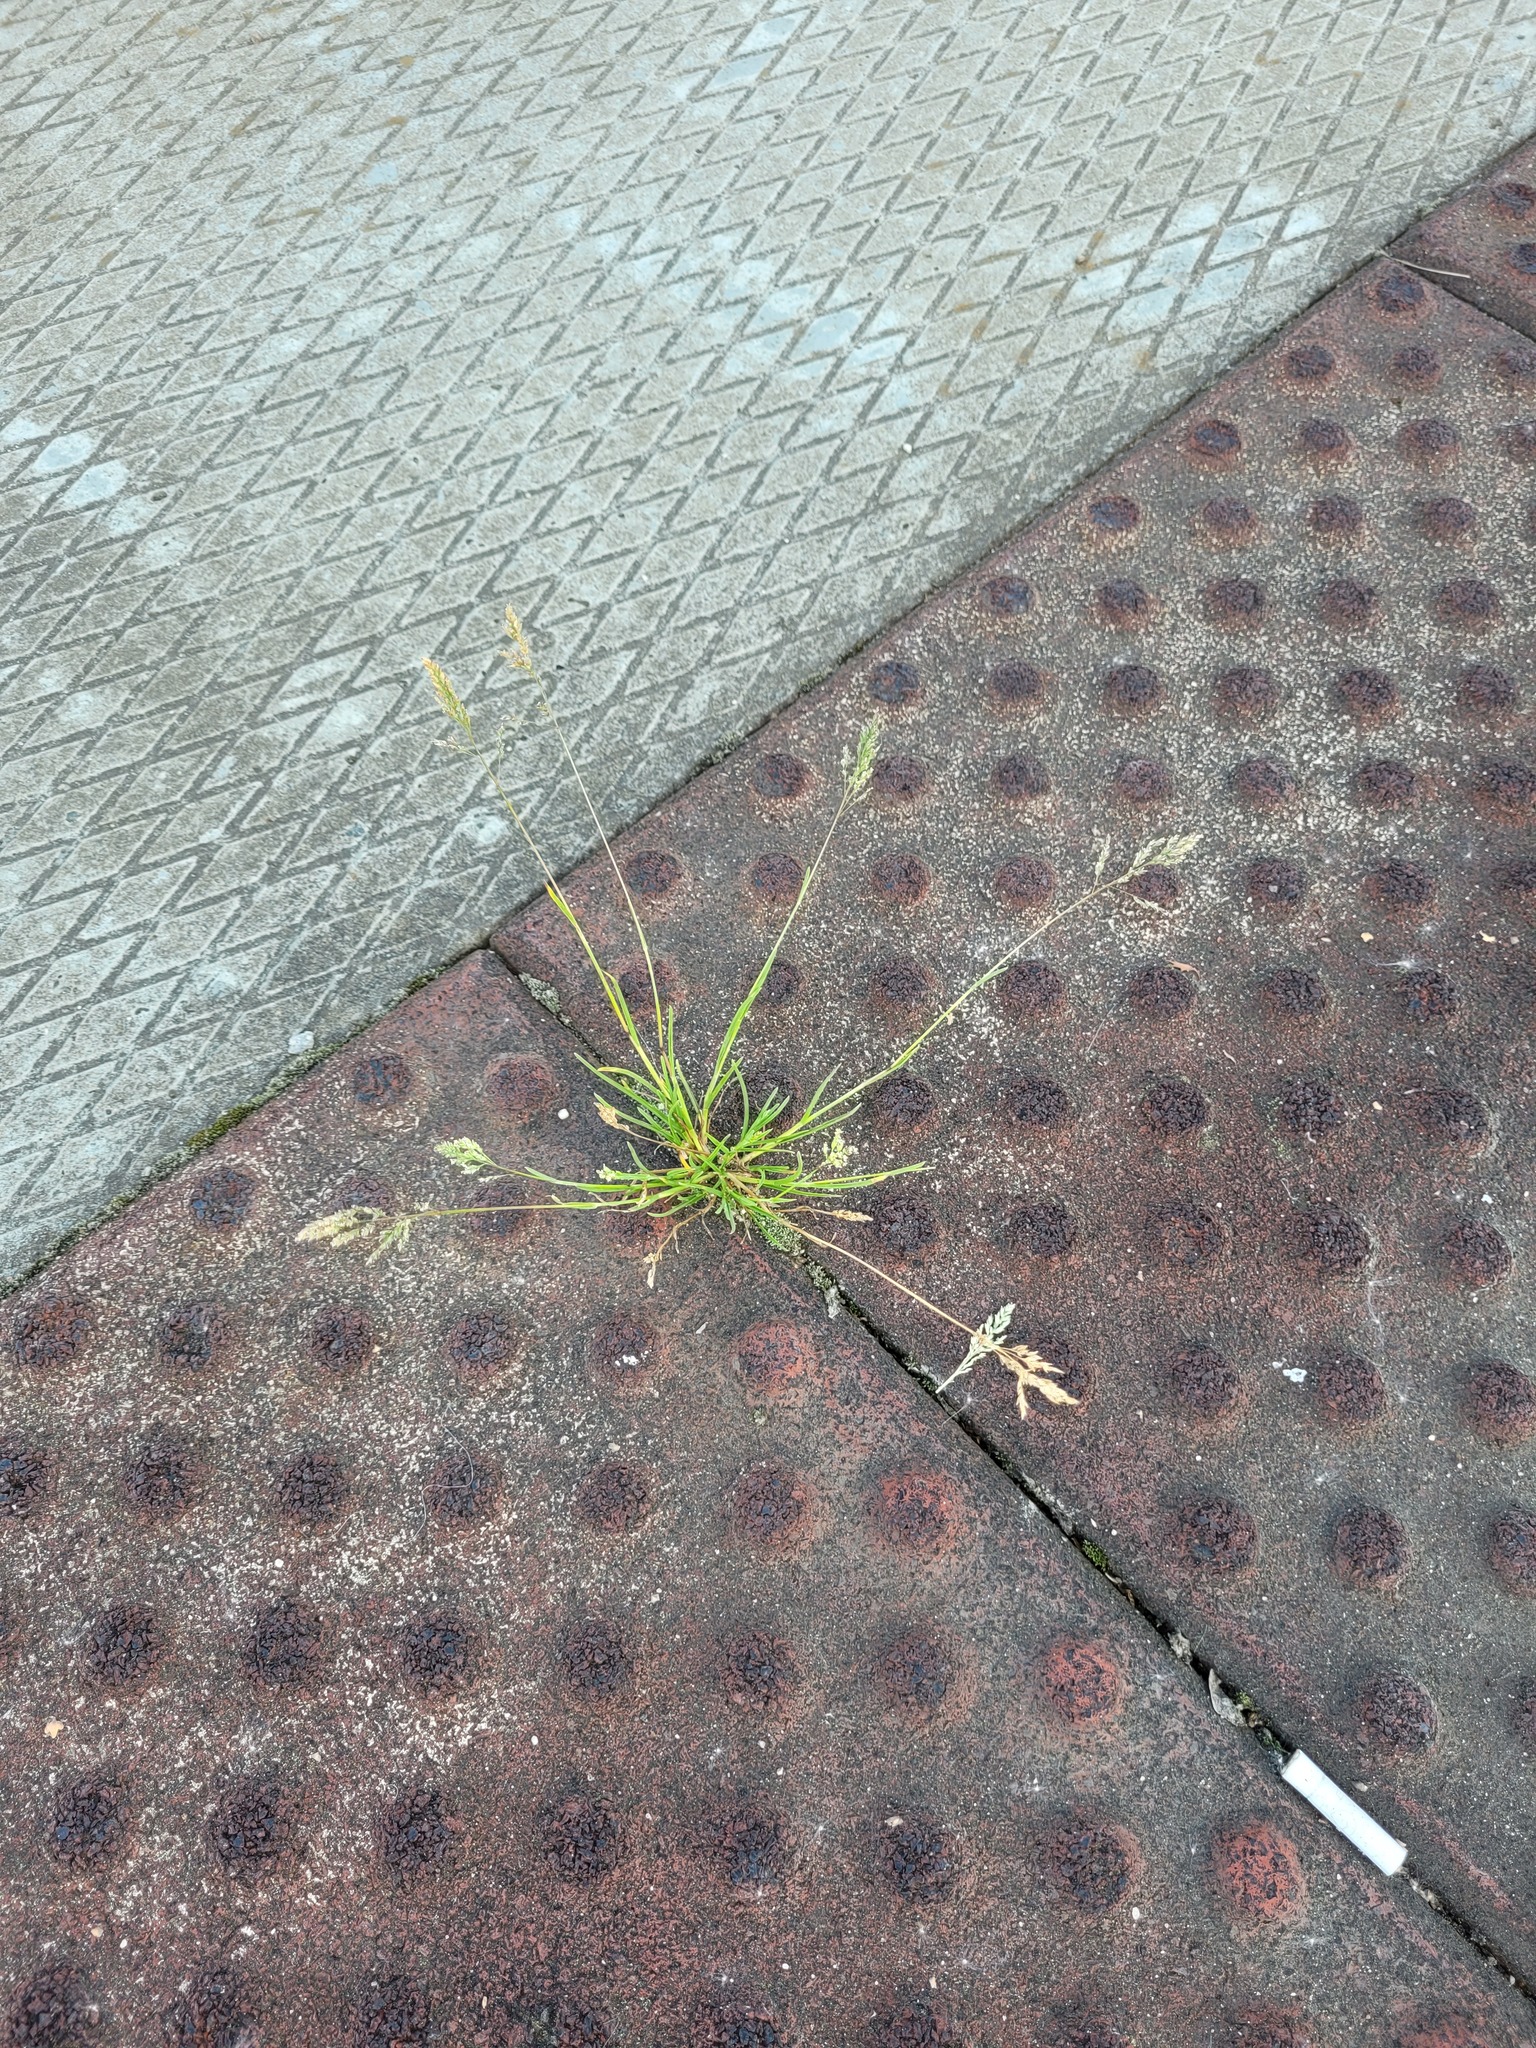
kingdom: Plantae
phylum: Tracheophyta
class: Liliopsida
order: Poales
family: Poaceae
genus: Poa
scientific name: Poa annua
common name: Annual bluegrass
